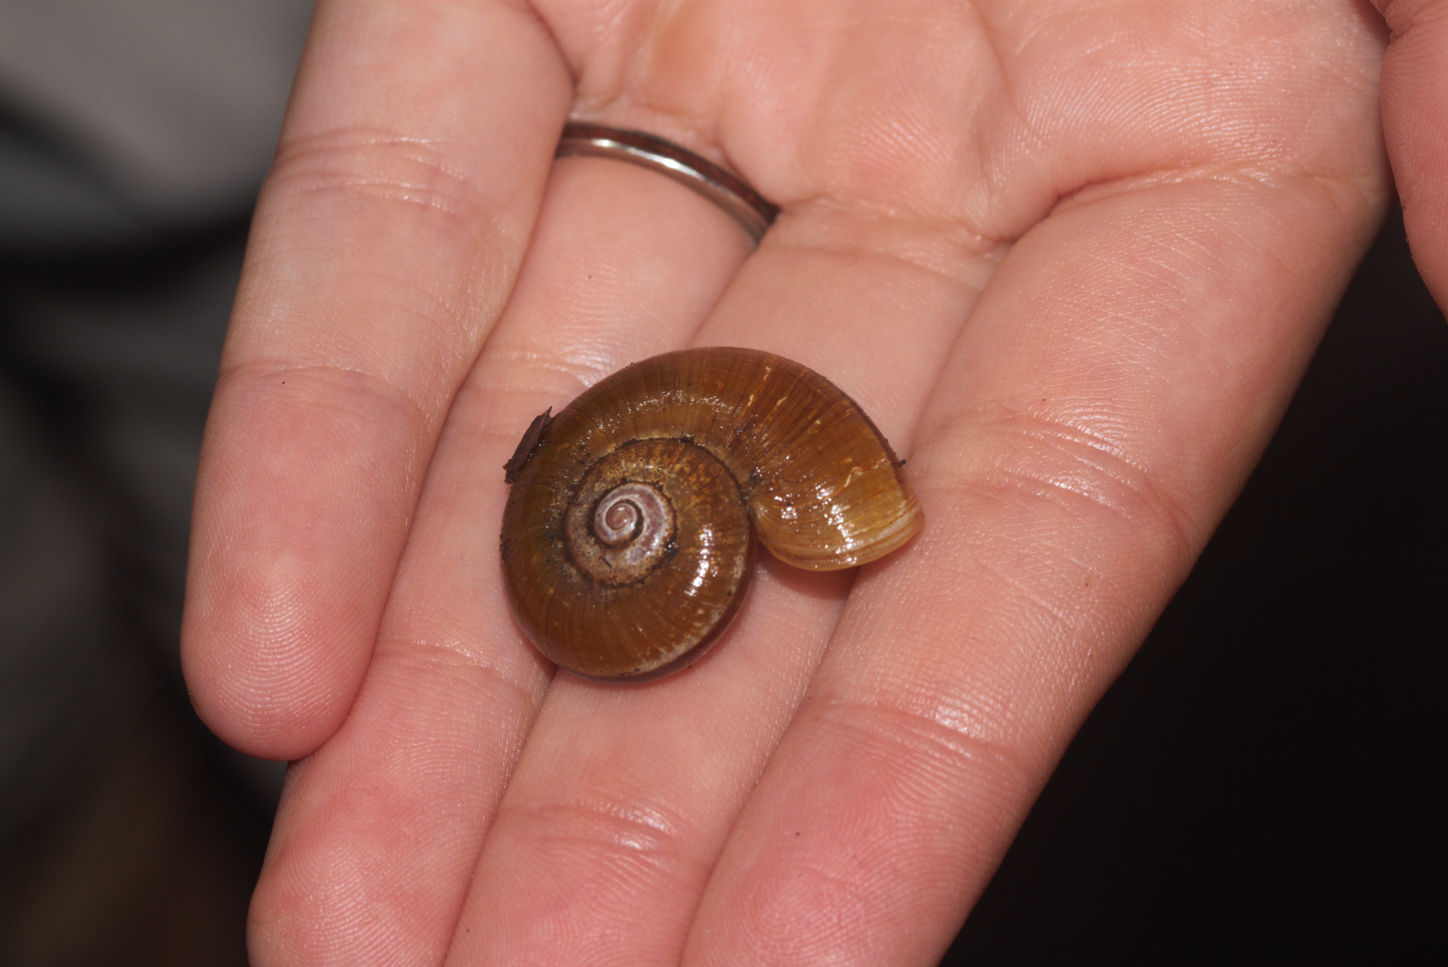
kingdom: Animalia
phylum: Mollusca
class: Gastropoda
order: Architaenioglossa
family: Neocyclotidae
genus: Incidostoma
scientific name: Incidostoma pari
